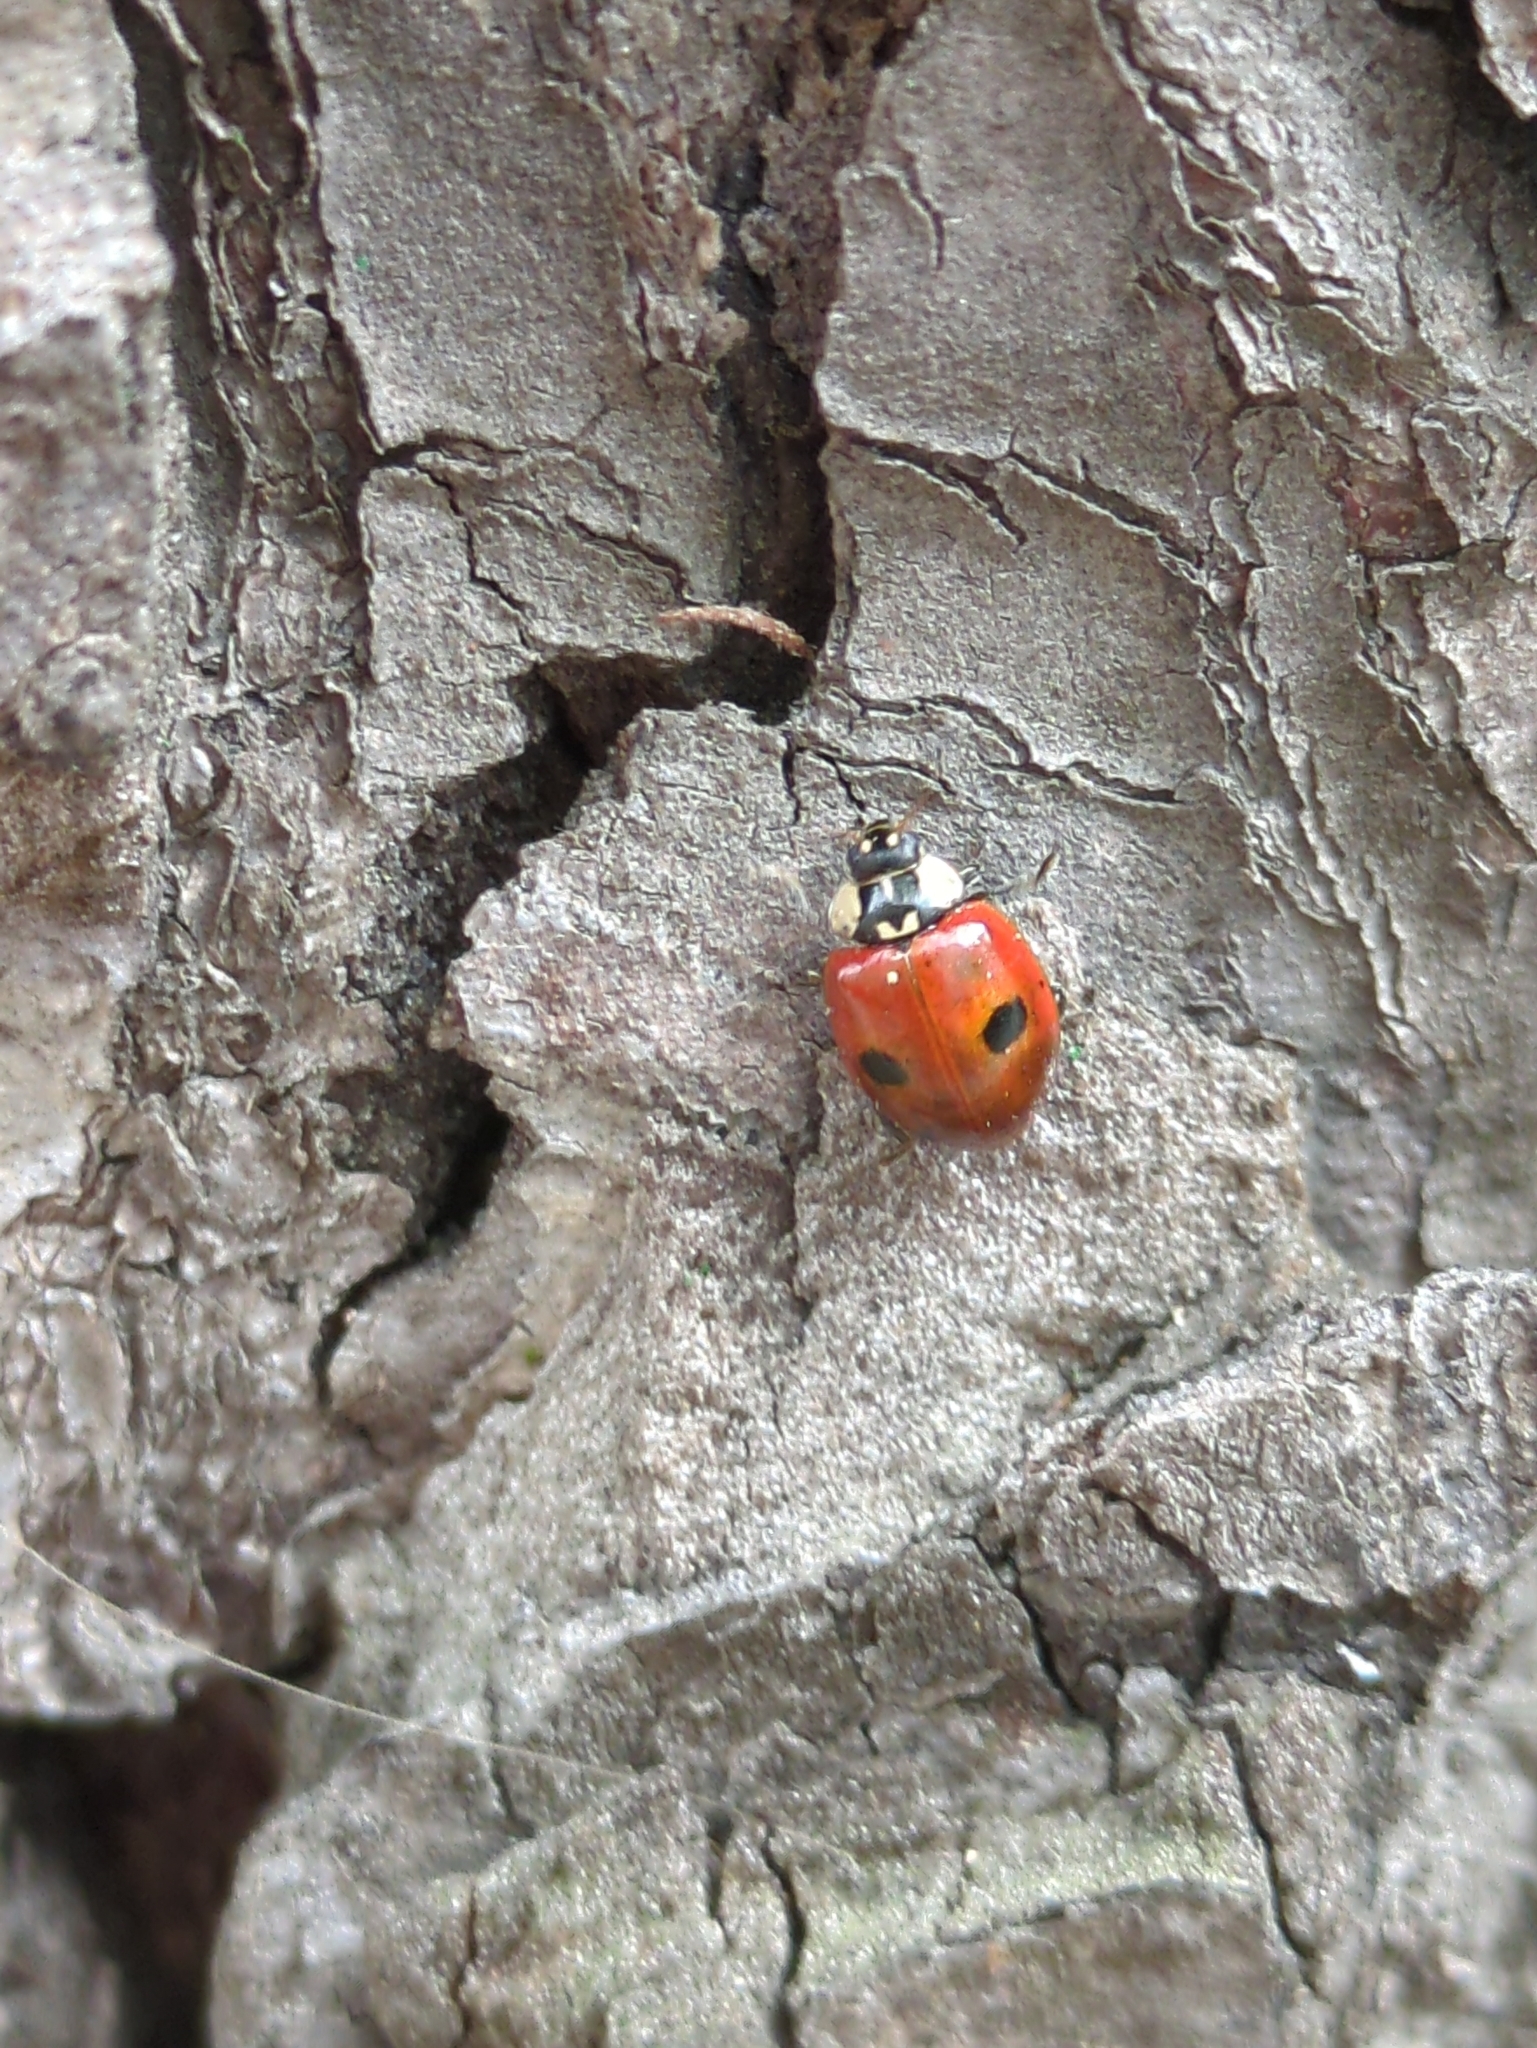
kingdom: Animalia
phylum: Arthropoda
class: Insecta
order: Coleoptera
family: Coccinellidae
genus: Adalia
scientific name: Adalia bipunctata
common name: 2-spot ladybird
